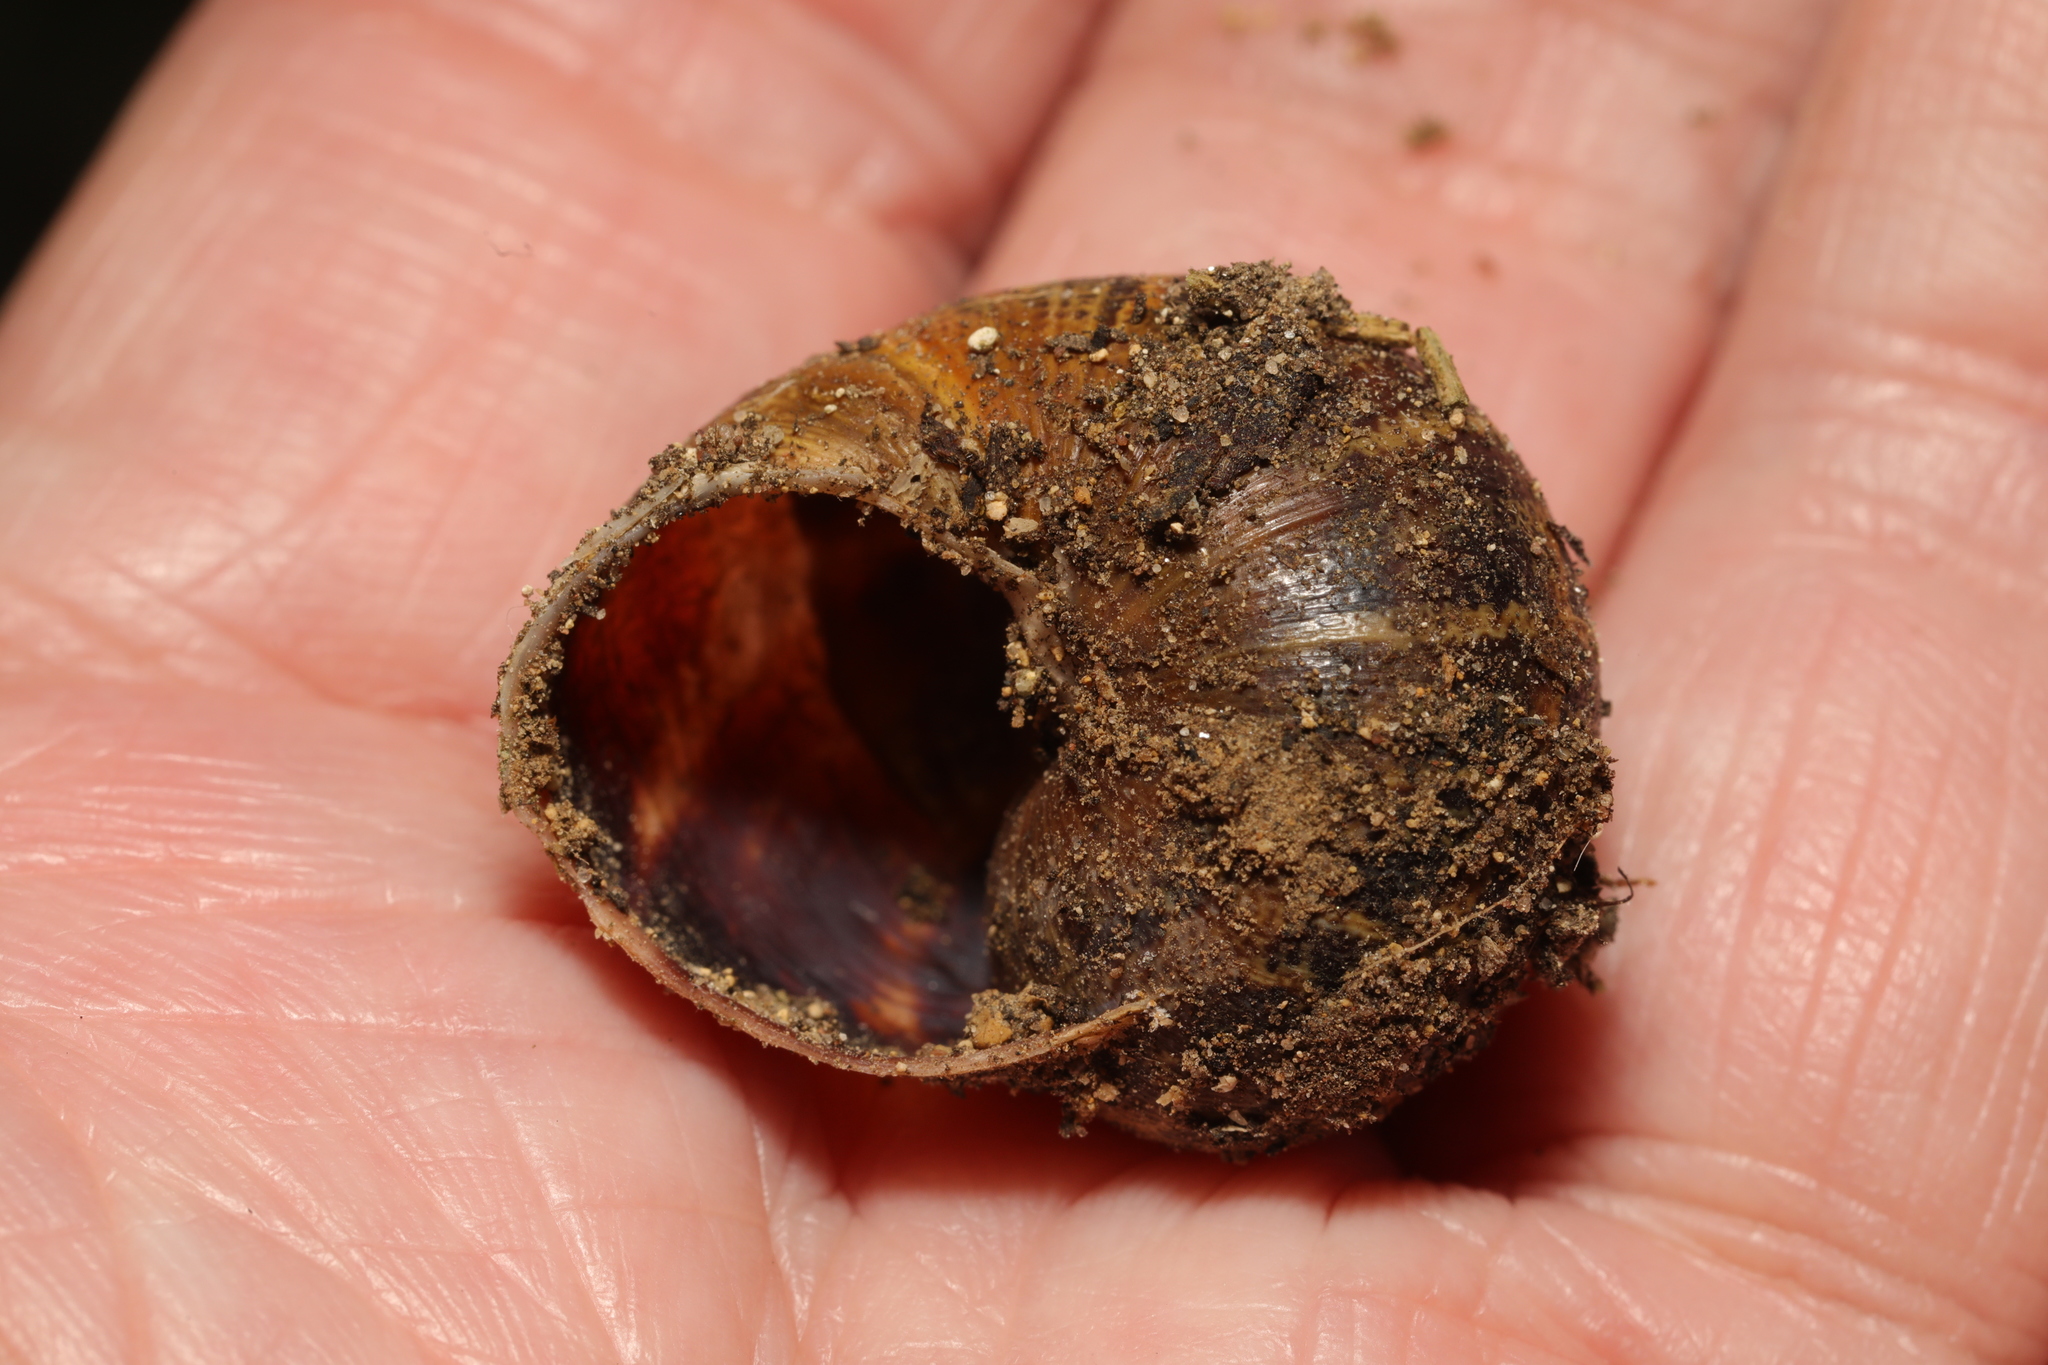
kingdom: Animalia
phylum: Mollusca
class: Gastropoda
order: Stylommatophora
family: Helicidae
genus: Cornu
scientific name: Cornu aspersum
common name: Brown garden snail
